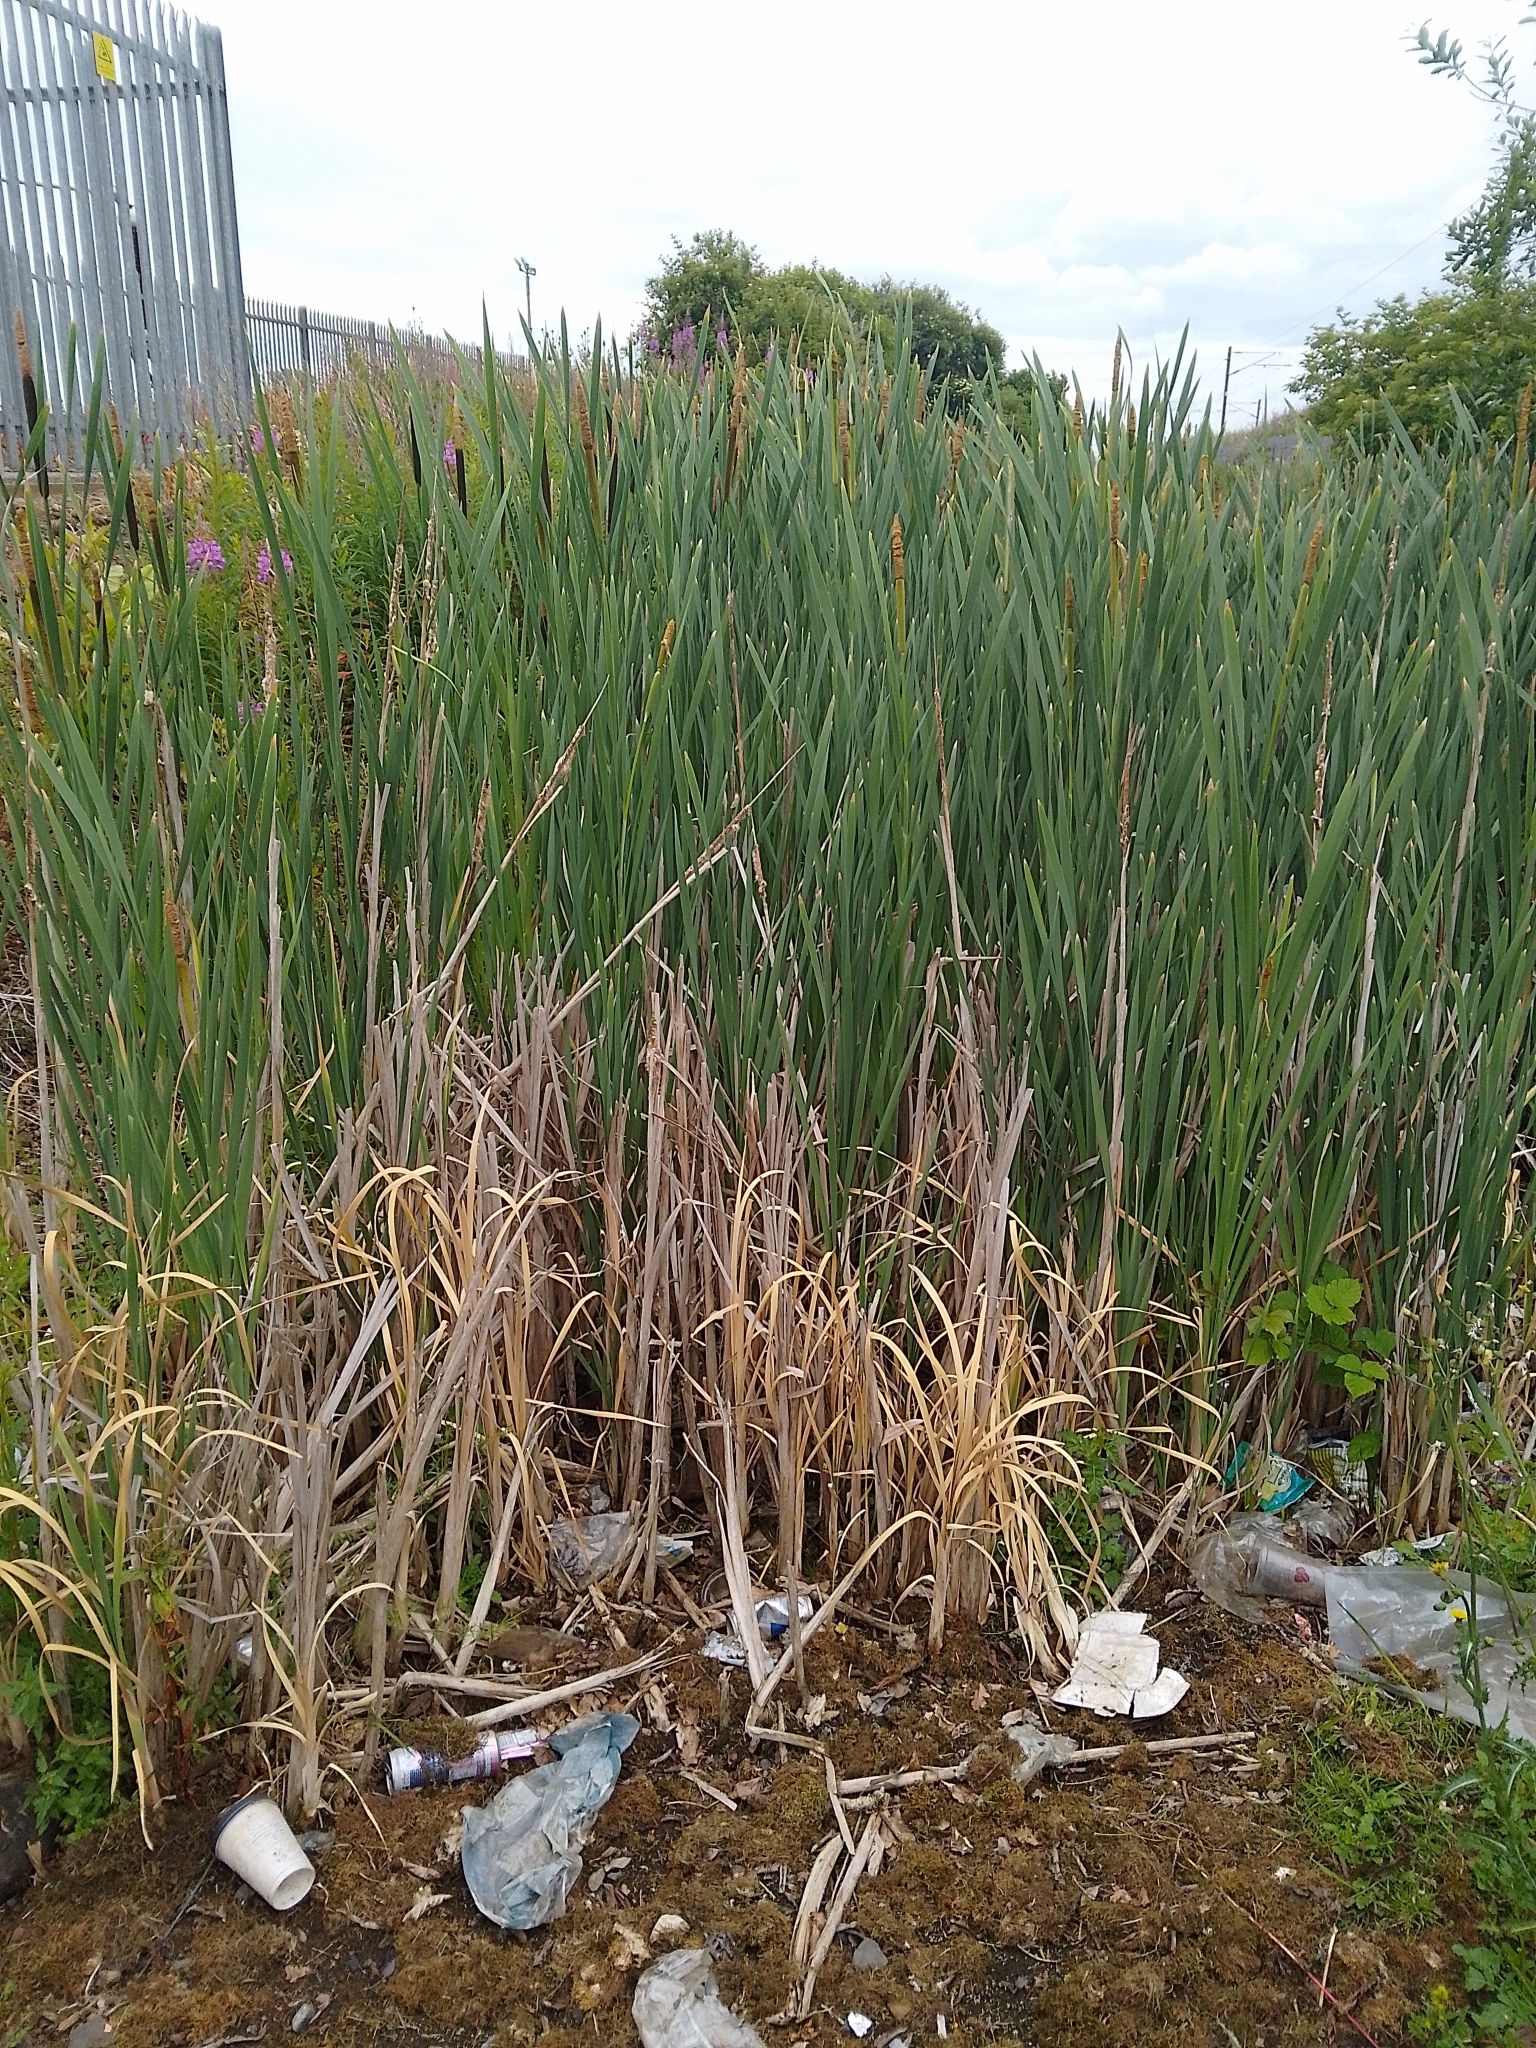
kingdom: Plantae
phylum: Tracheophyta
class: Liliopsida
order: Poales
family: Typhaceae
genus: Typha
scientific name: Typha latifolia
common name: Broadleaf cattail
